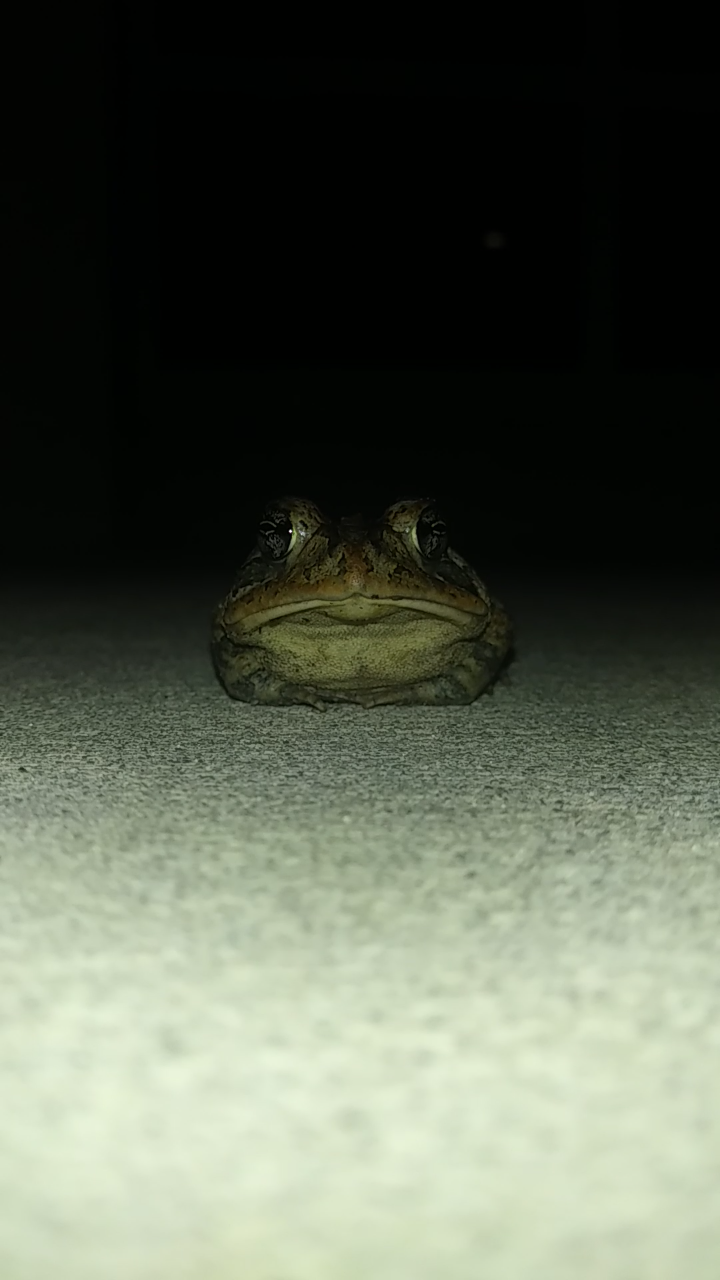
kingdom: Animalia
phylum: Chordata
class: Amphibia
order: Anura
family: Bufonidae
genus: Anaxyrus
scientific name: Anaxyrus terrestris
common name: Southern toad
